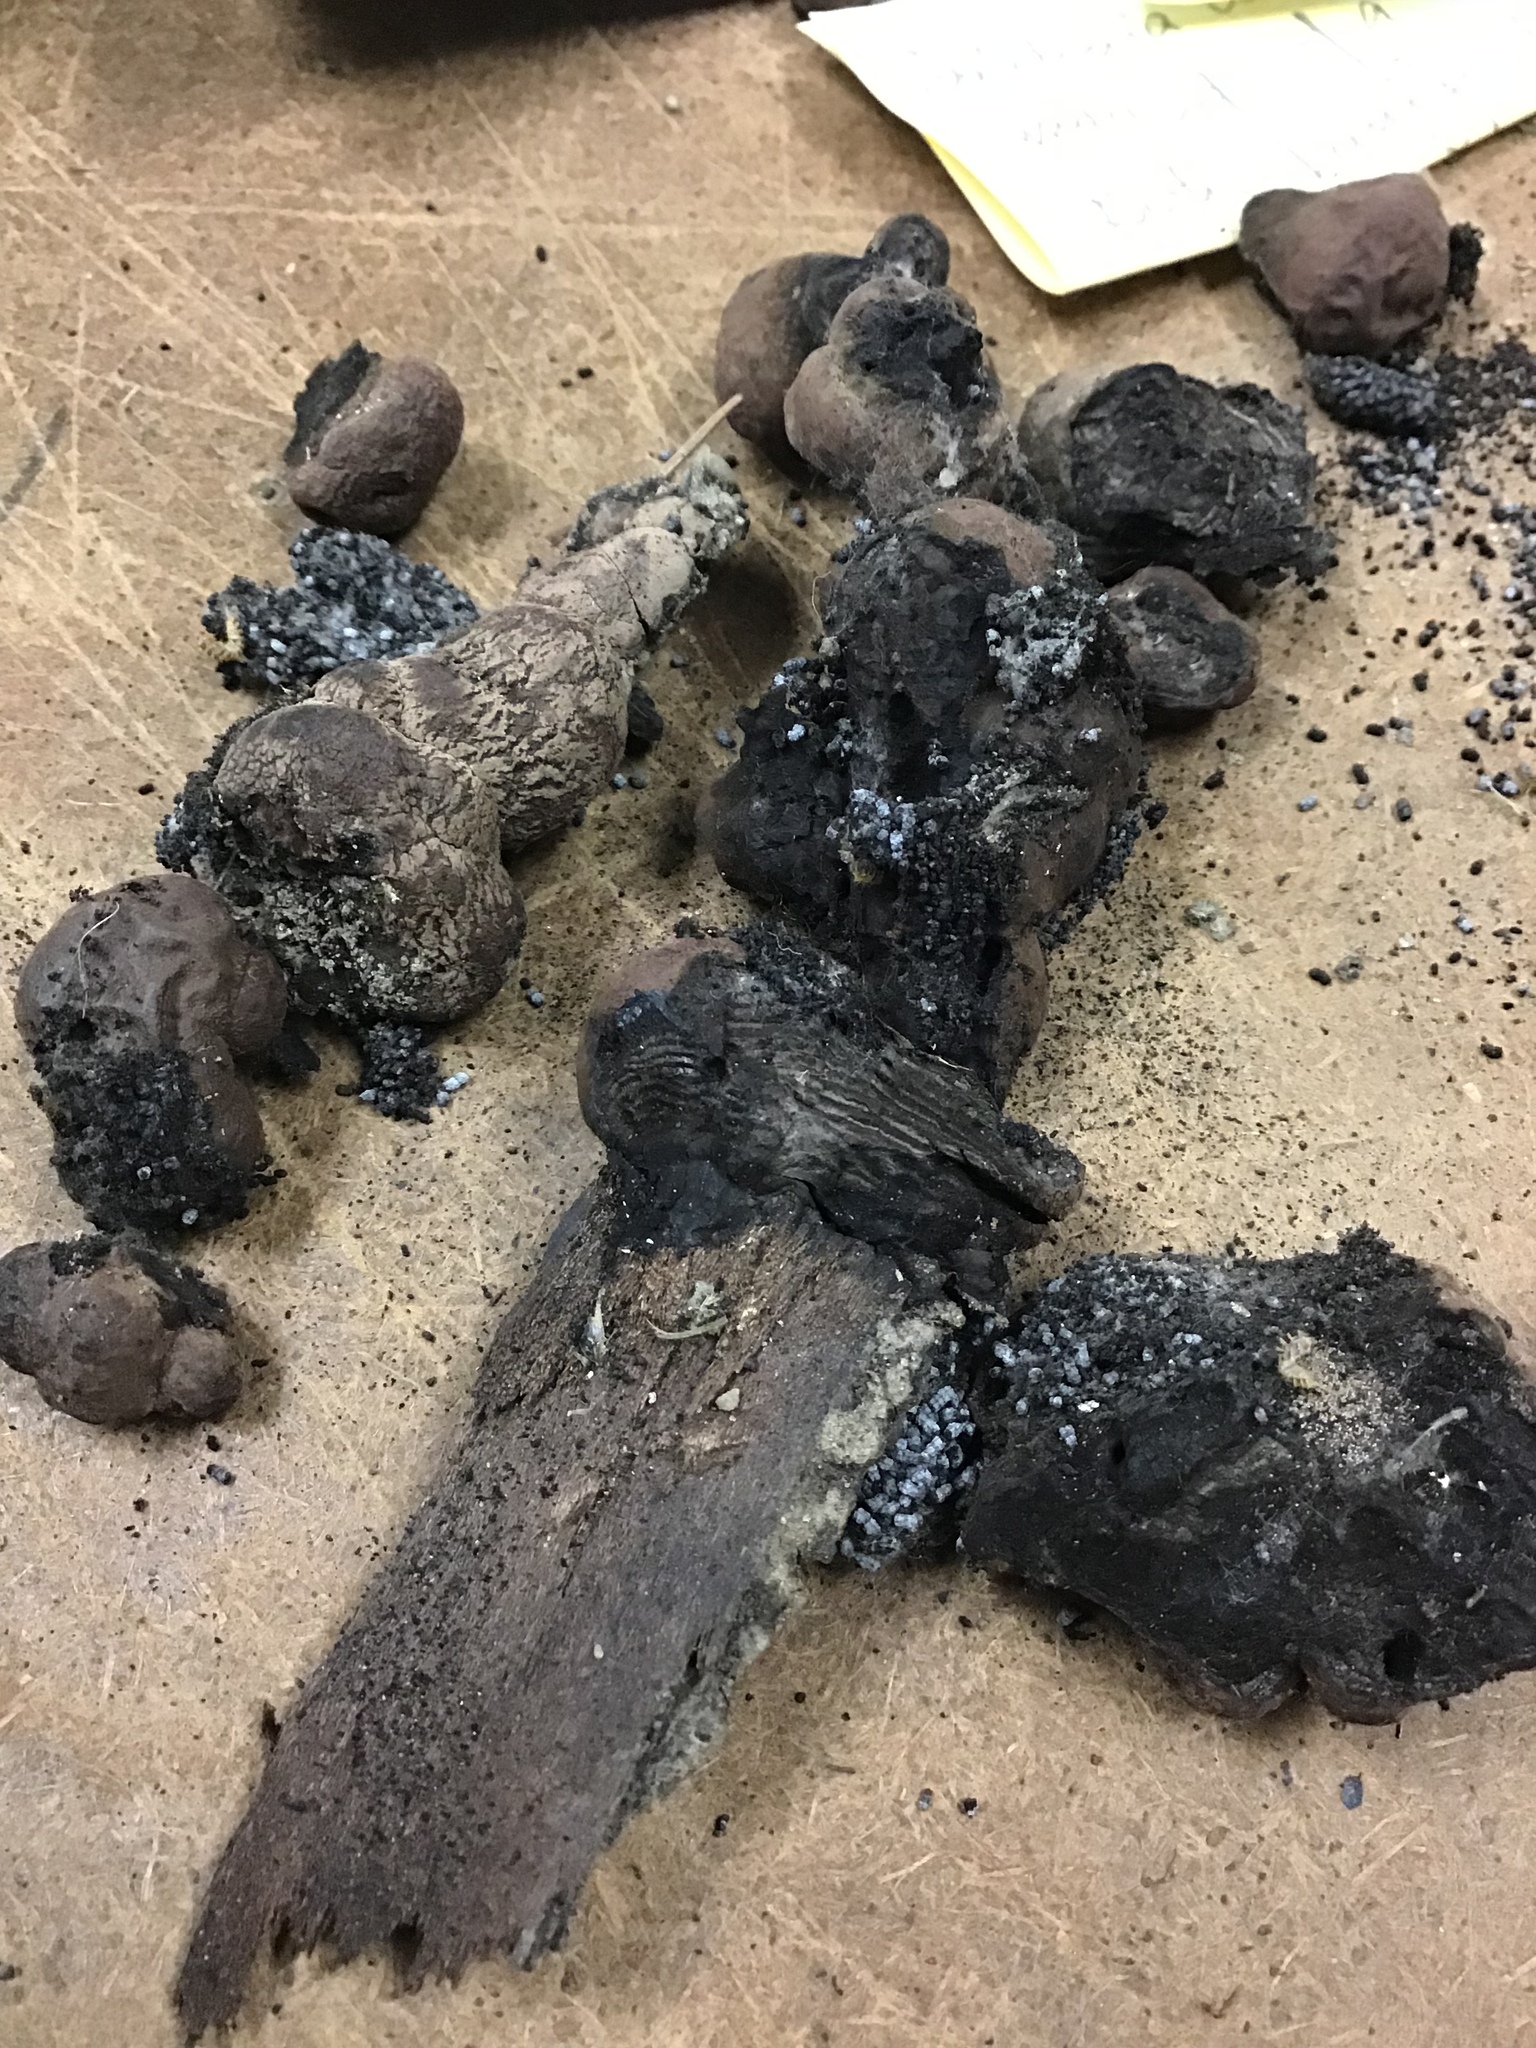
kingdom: Fungi
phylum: Ascomycota
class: Sordariomycetes
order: Xylariales
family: Hypoxylaceae
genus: Daldinia
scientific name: Daldinia childiae
